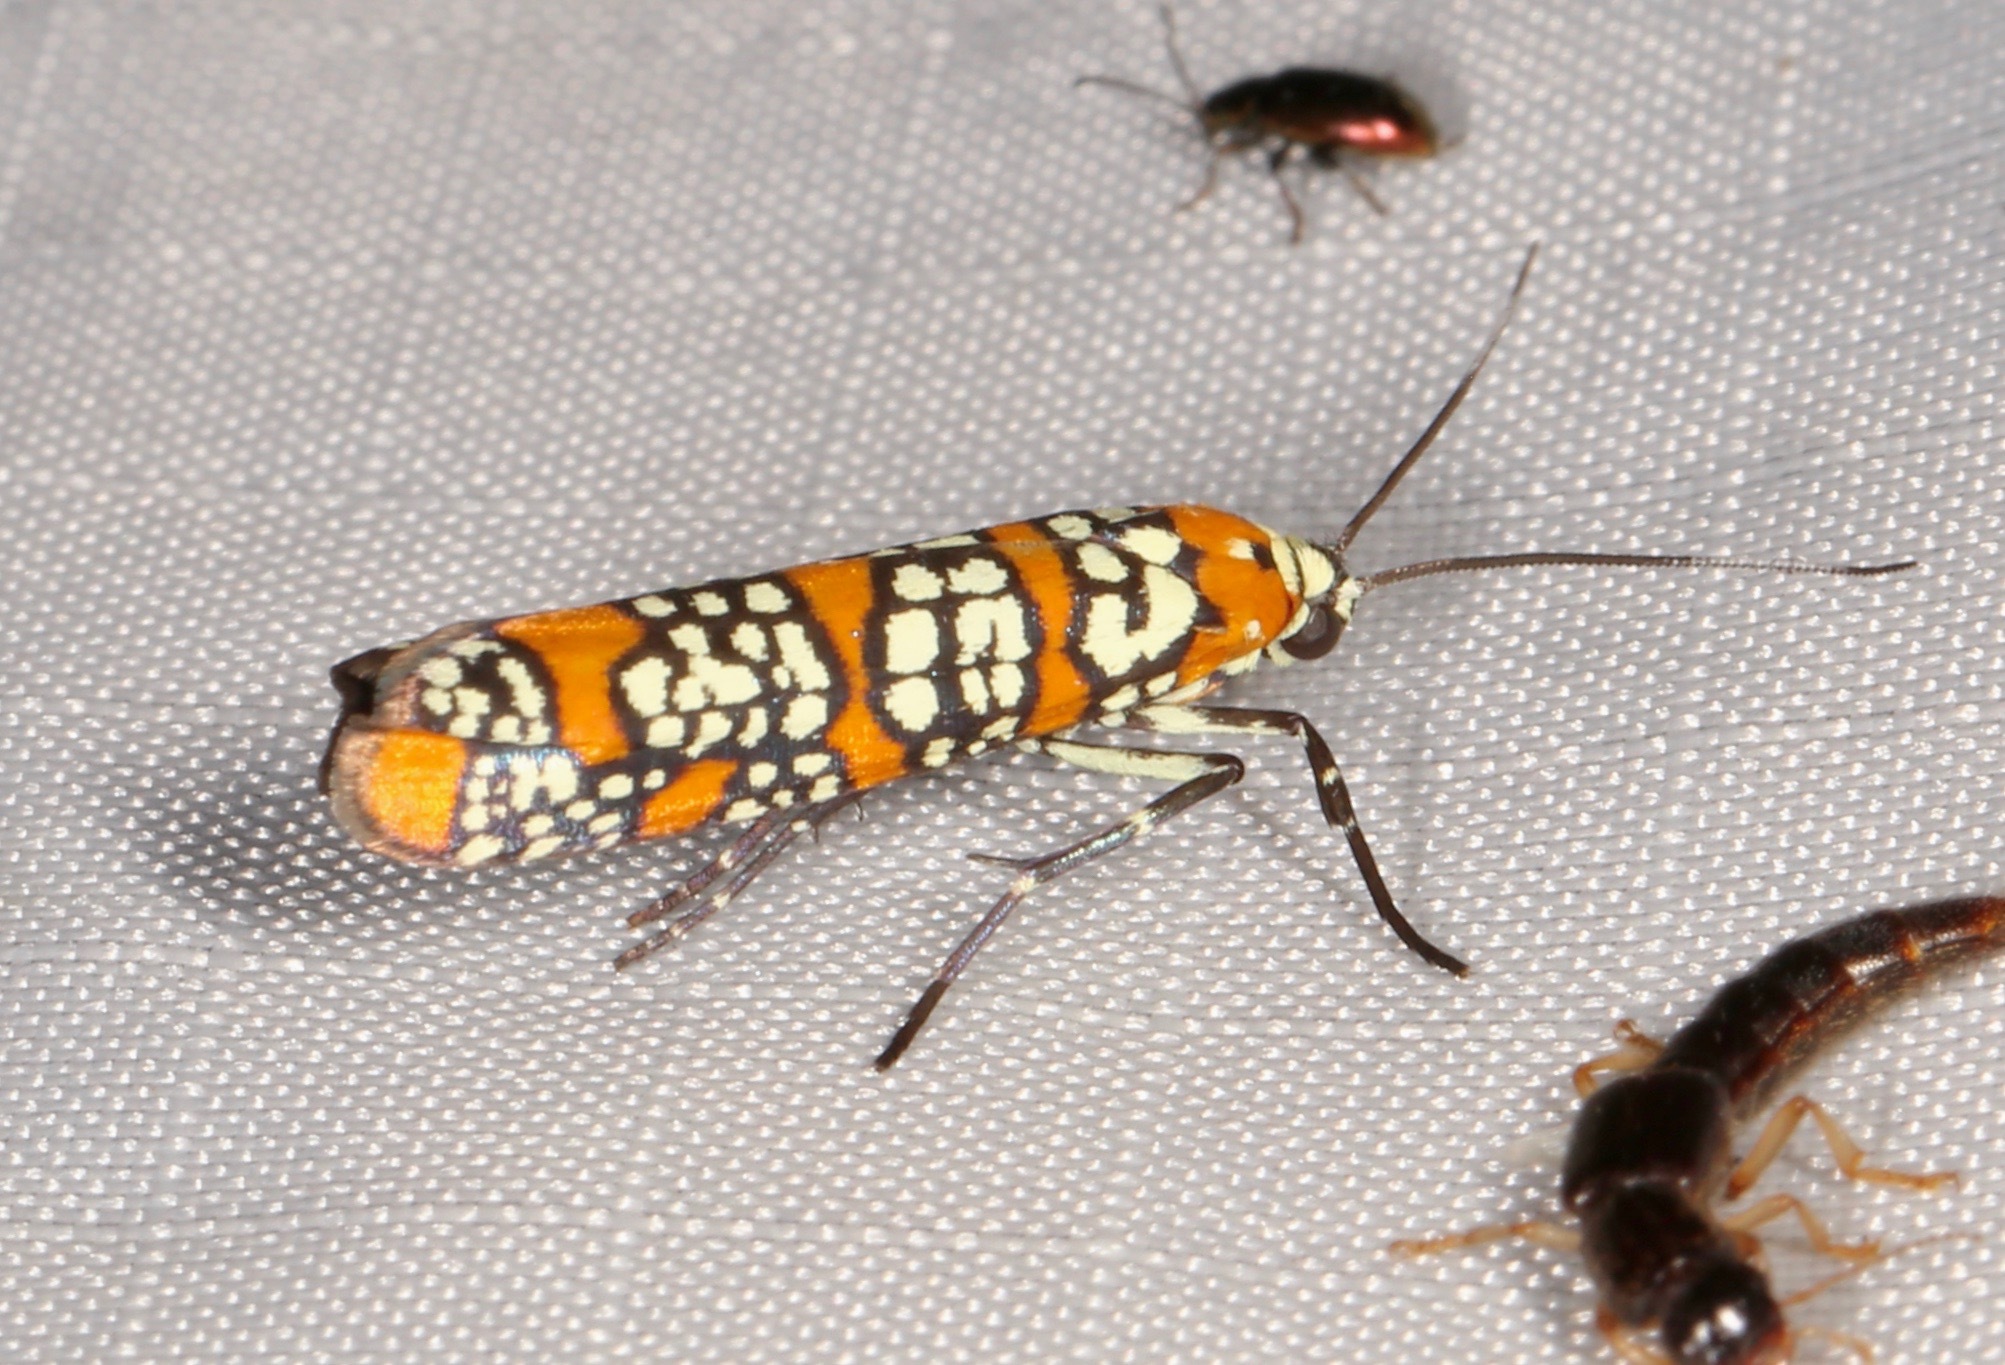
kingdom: Animalia
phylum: Arthropoda
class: Insecta
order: Lepidoptera
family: Attevidae
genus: Atteva
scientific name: Atteva punctella
